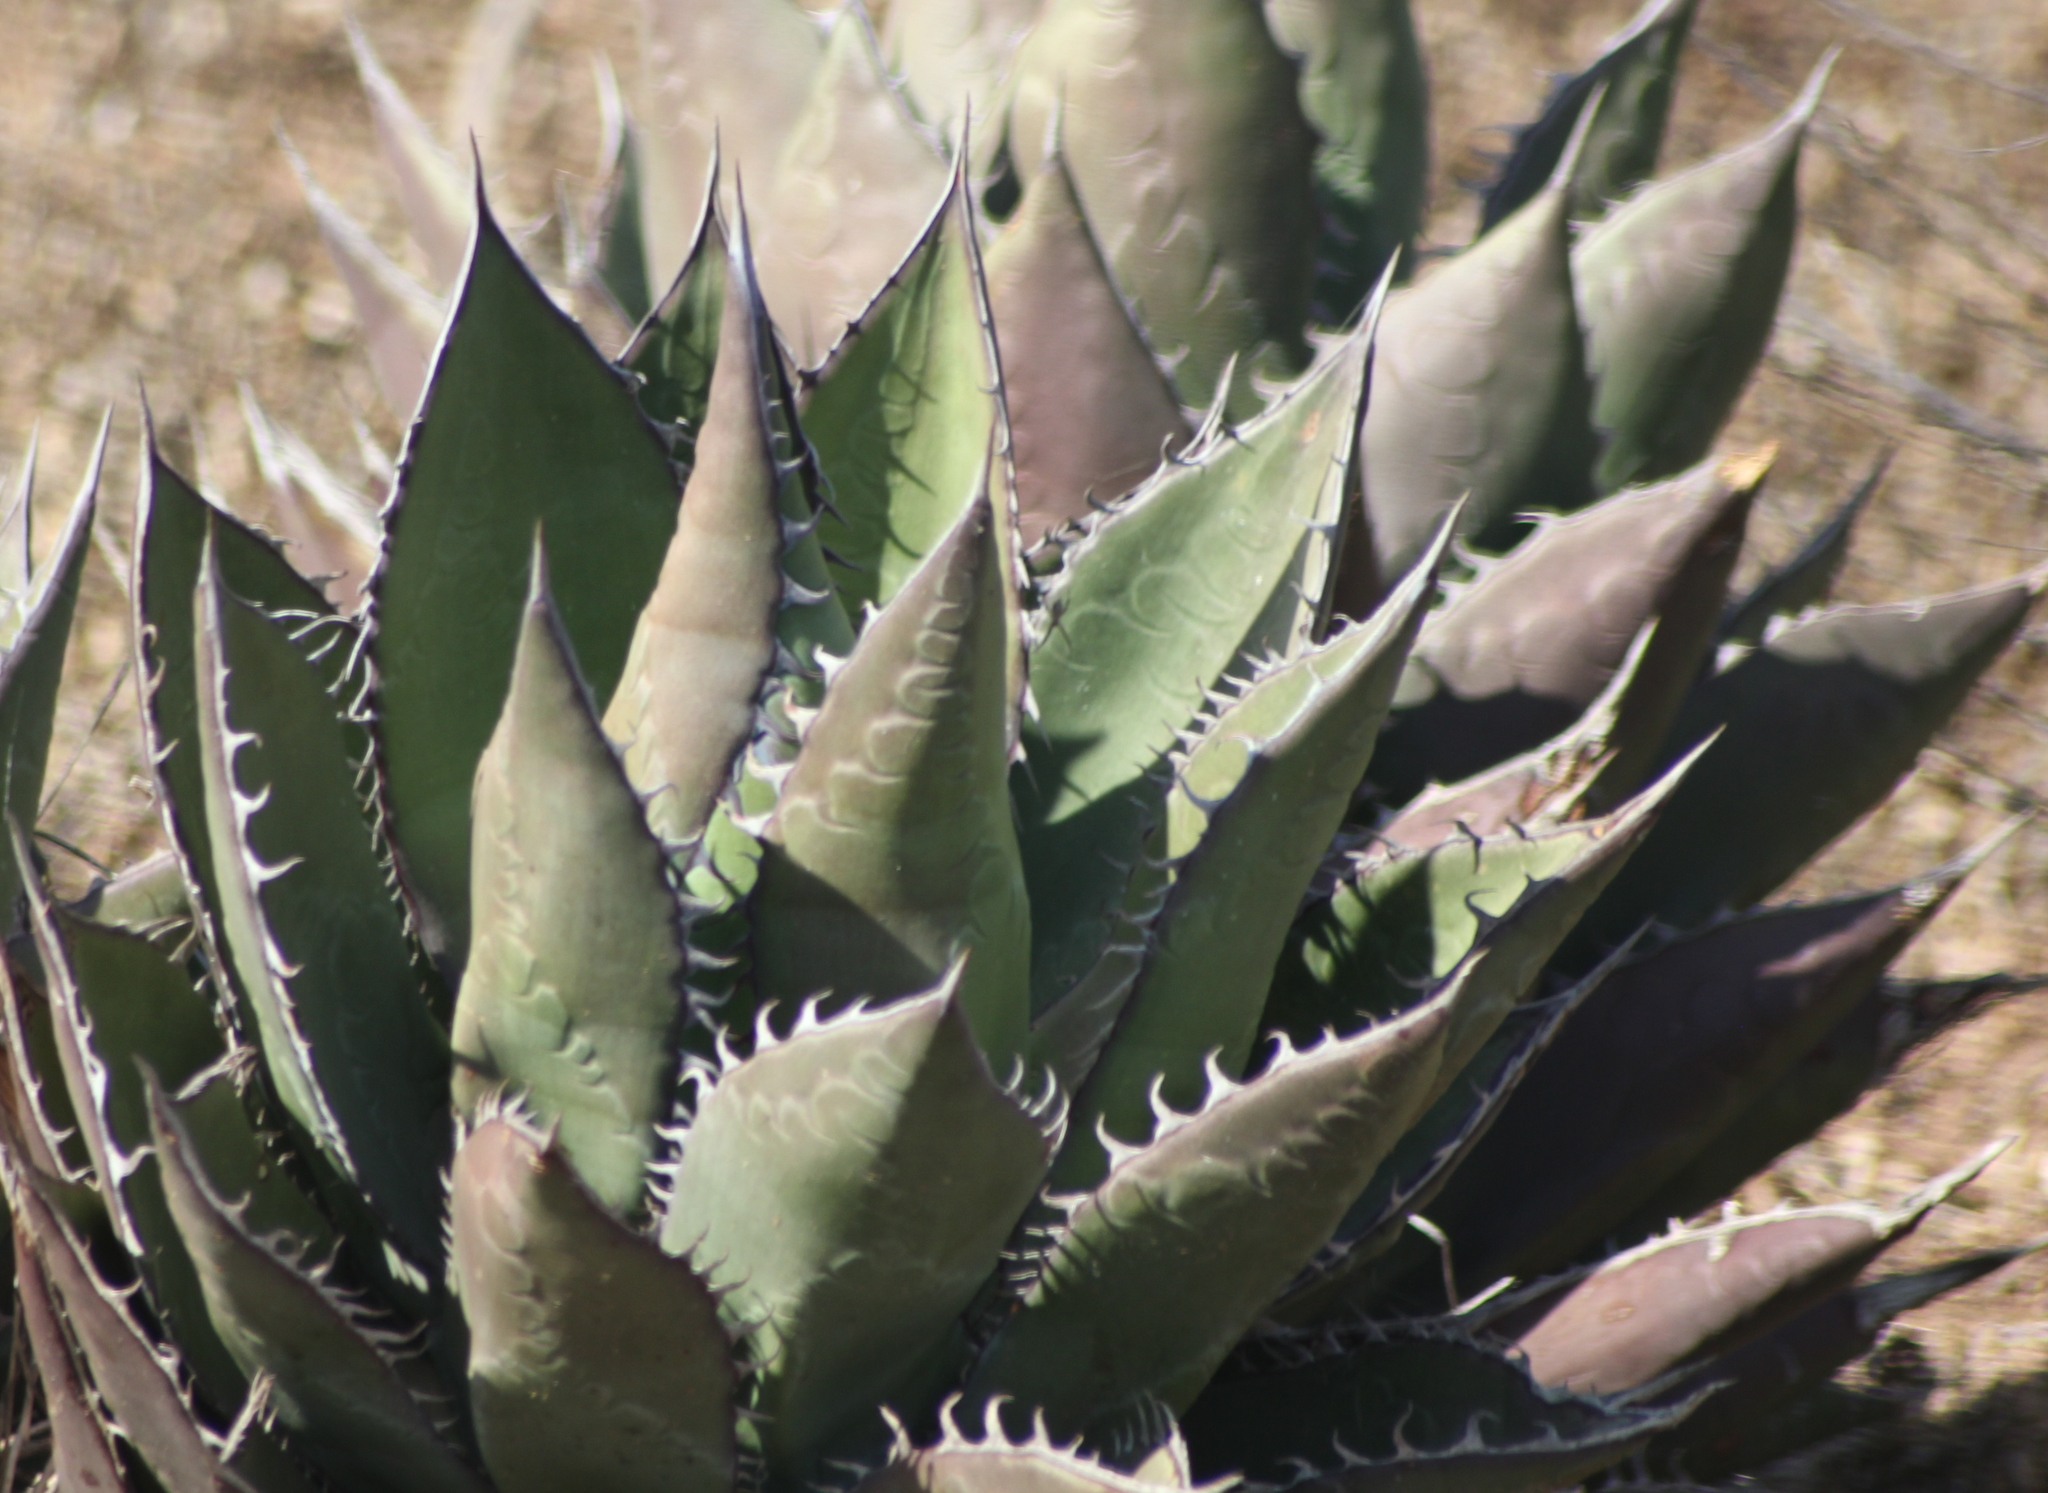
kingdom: Plantae
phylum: Tracheophyta
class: Liliopsida
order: Asparagales
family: Asparagaceae
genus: Agave
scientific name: Agave shawii
